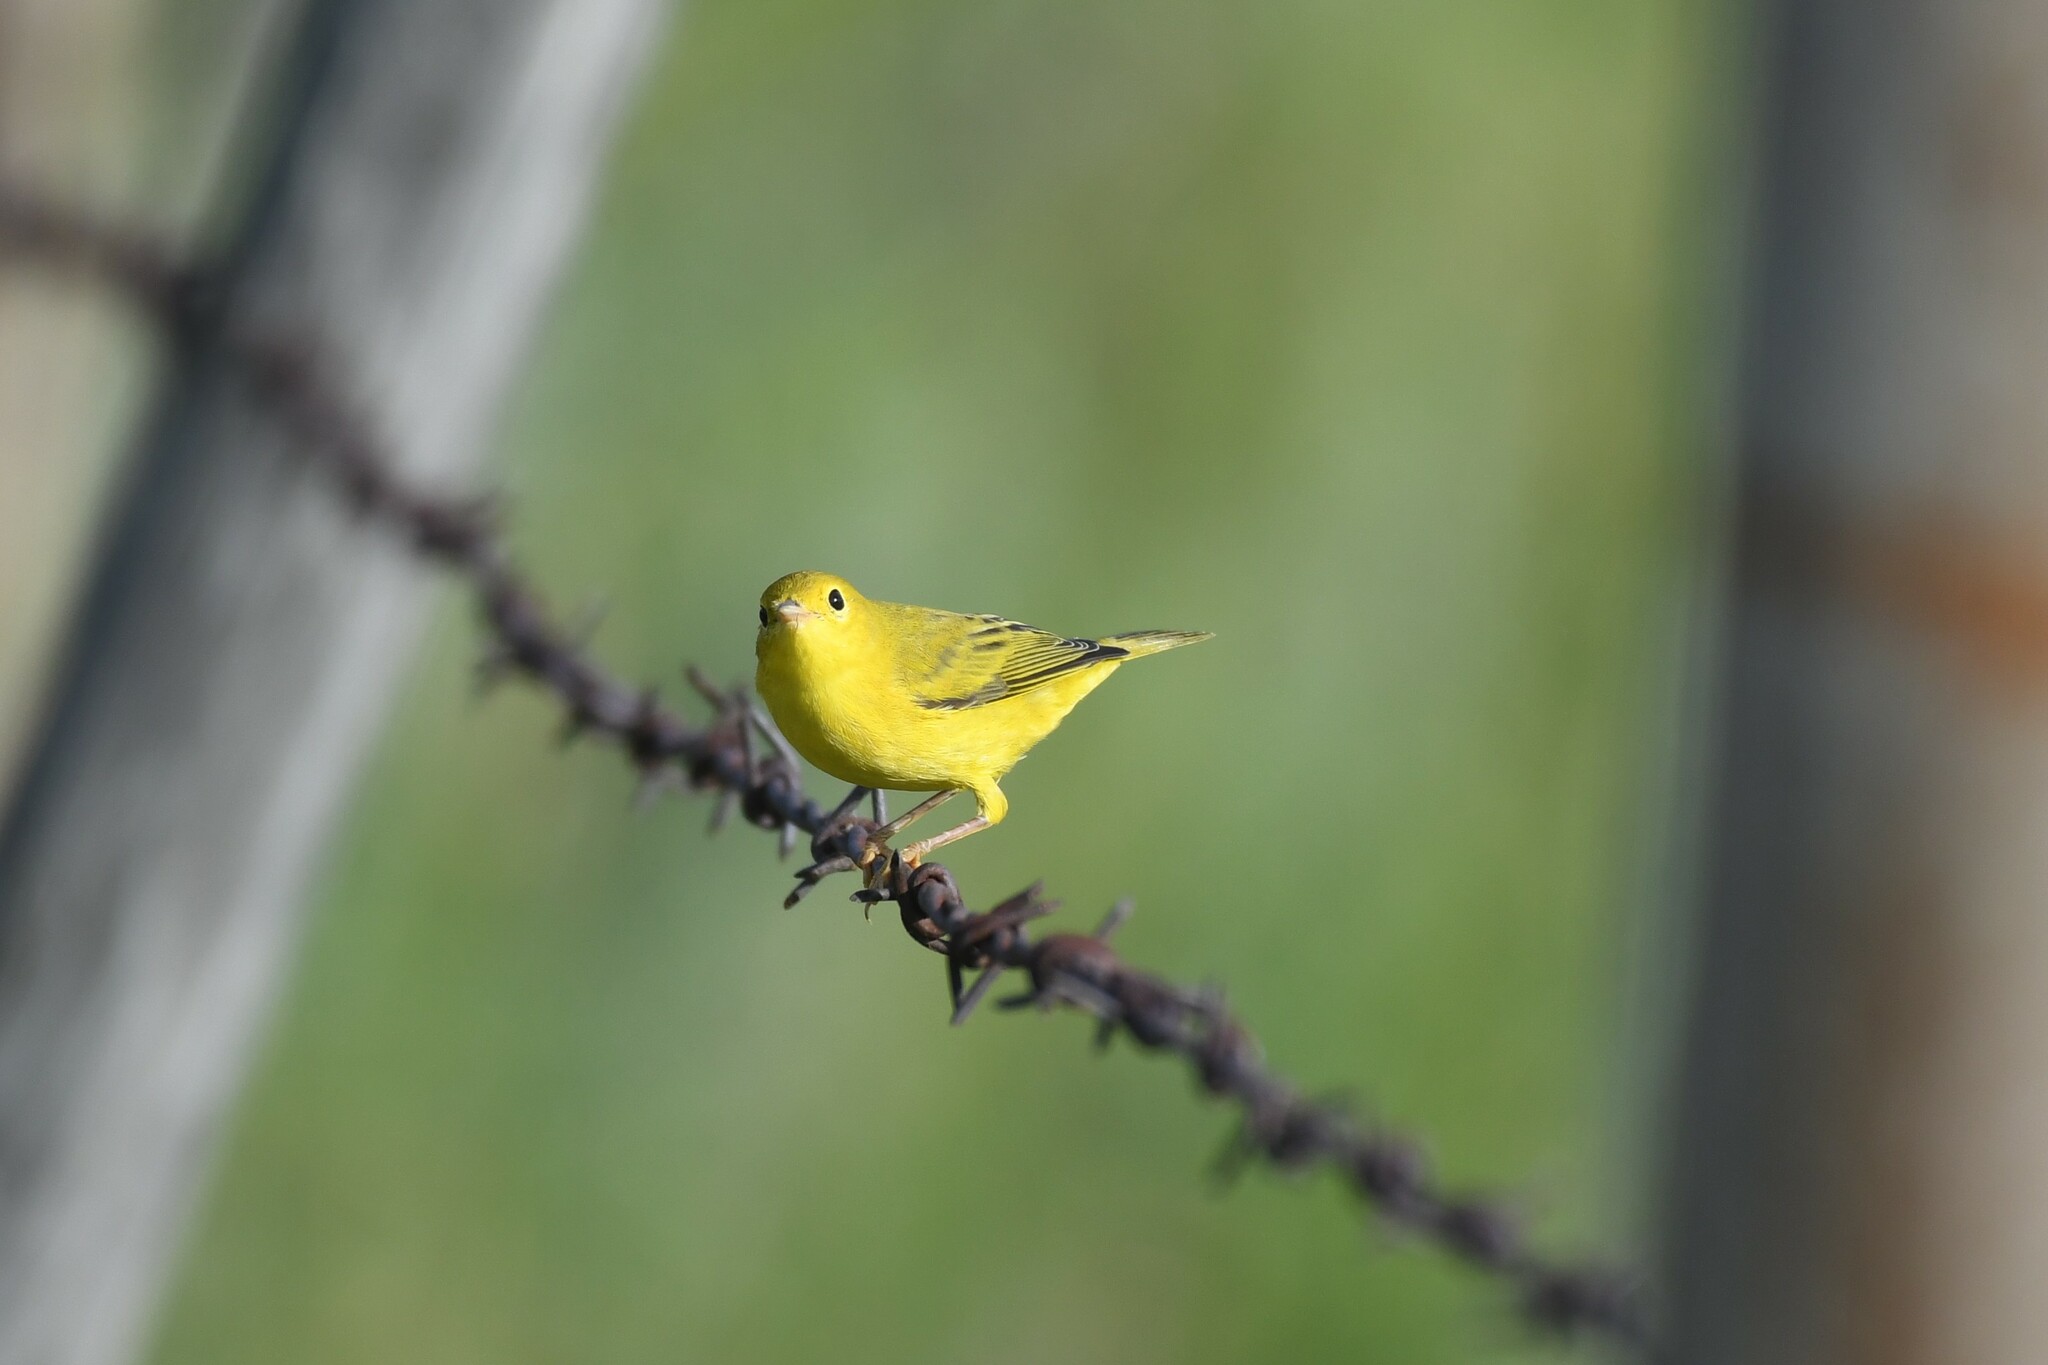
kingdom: Animalia
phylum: Chordata
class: Aves
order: Passeriformes
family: Parulidae
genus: Setophaga
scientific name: Setophaga petechia
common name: Yellow warbler
